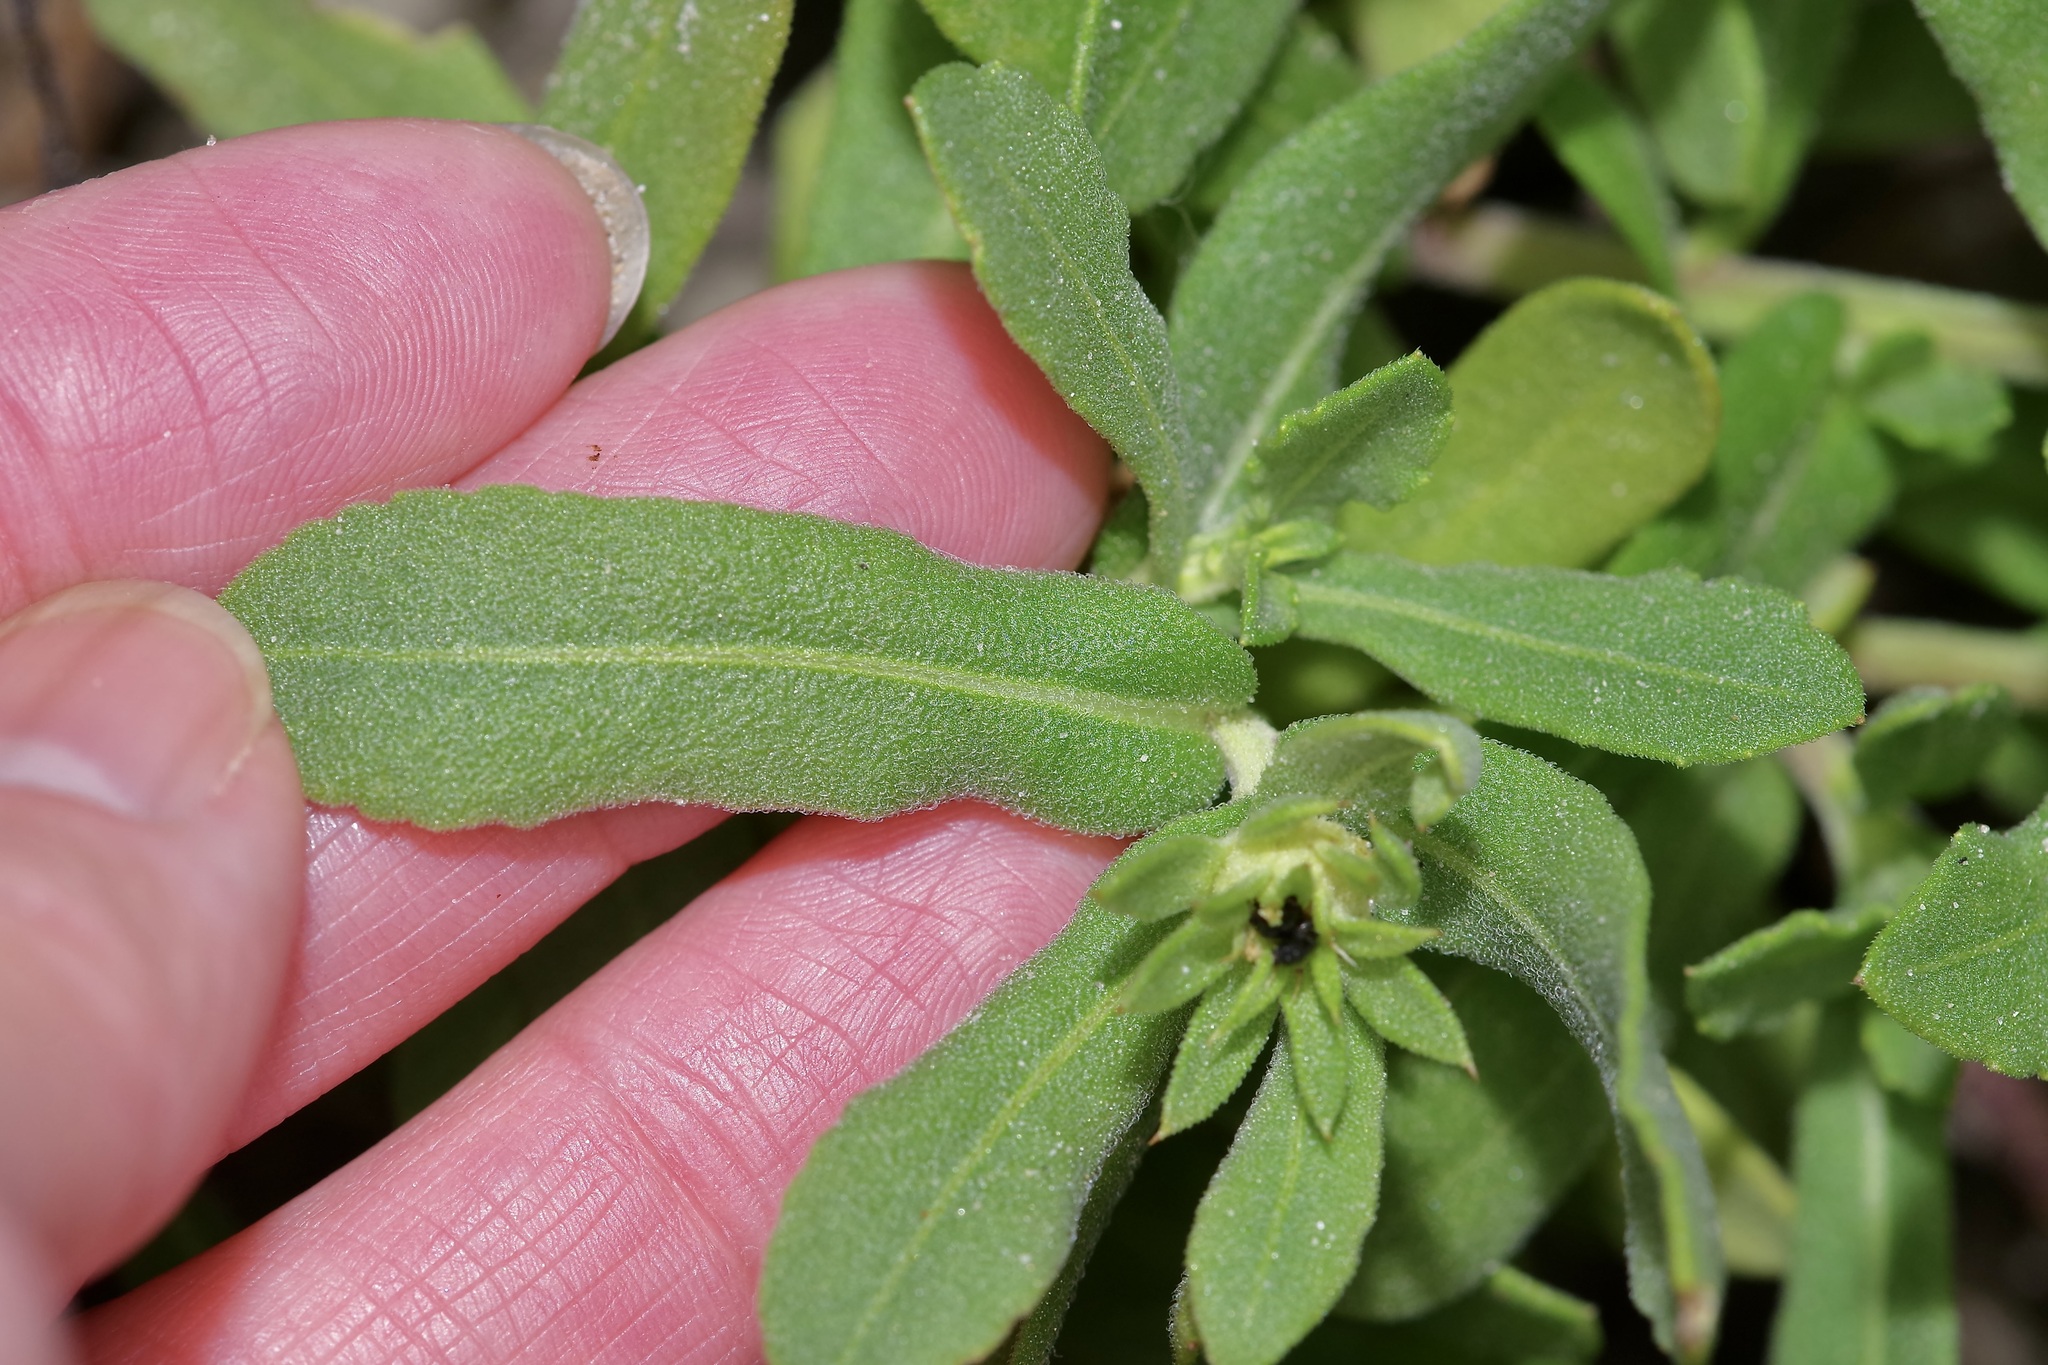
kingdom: Plantae
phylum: Tracheophyta
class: Magnoliopsida
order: Asterales
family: Asteraceae
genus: Gaillardia
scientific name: Gaillardia pulchella
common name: Firewheel
